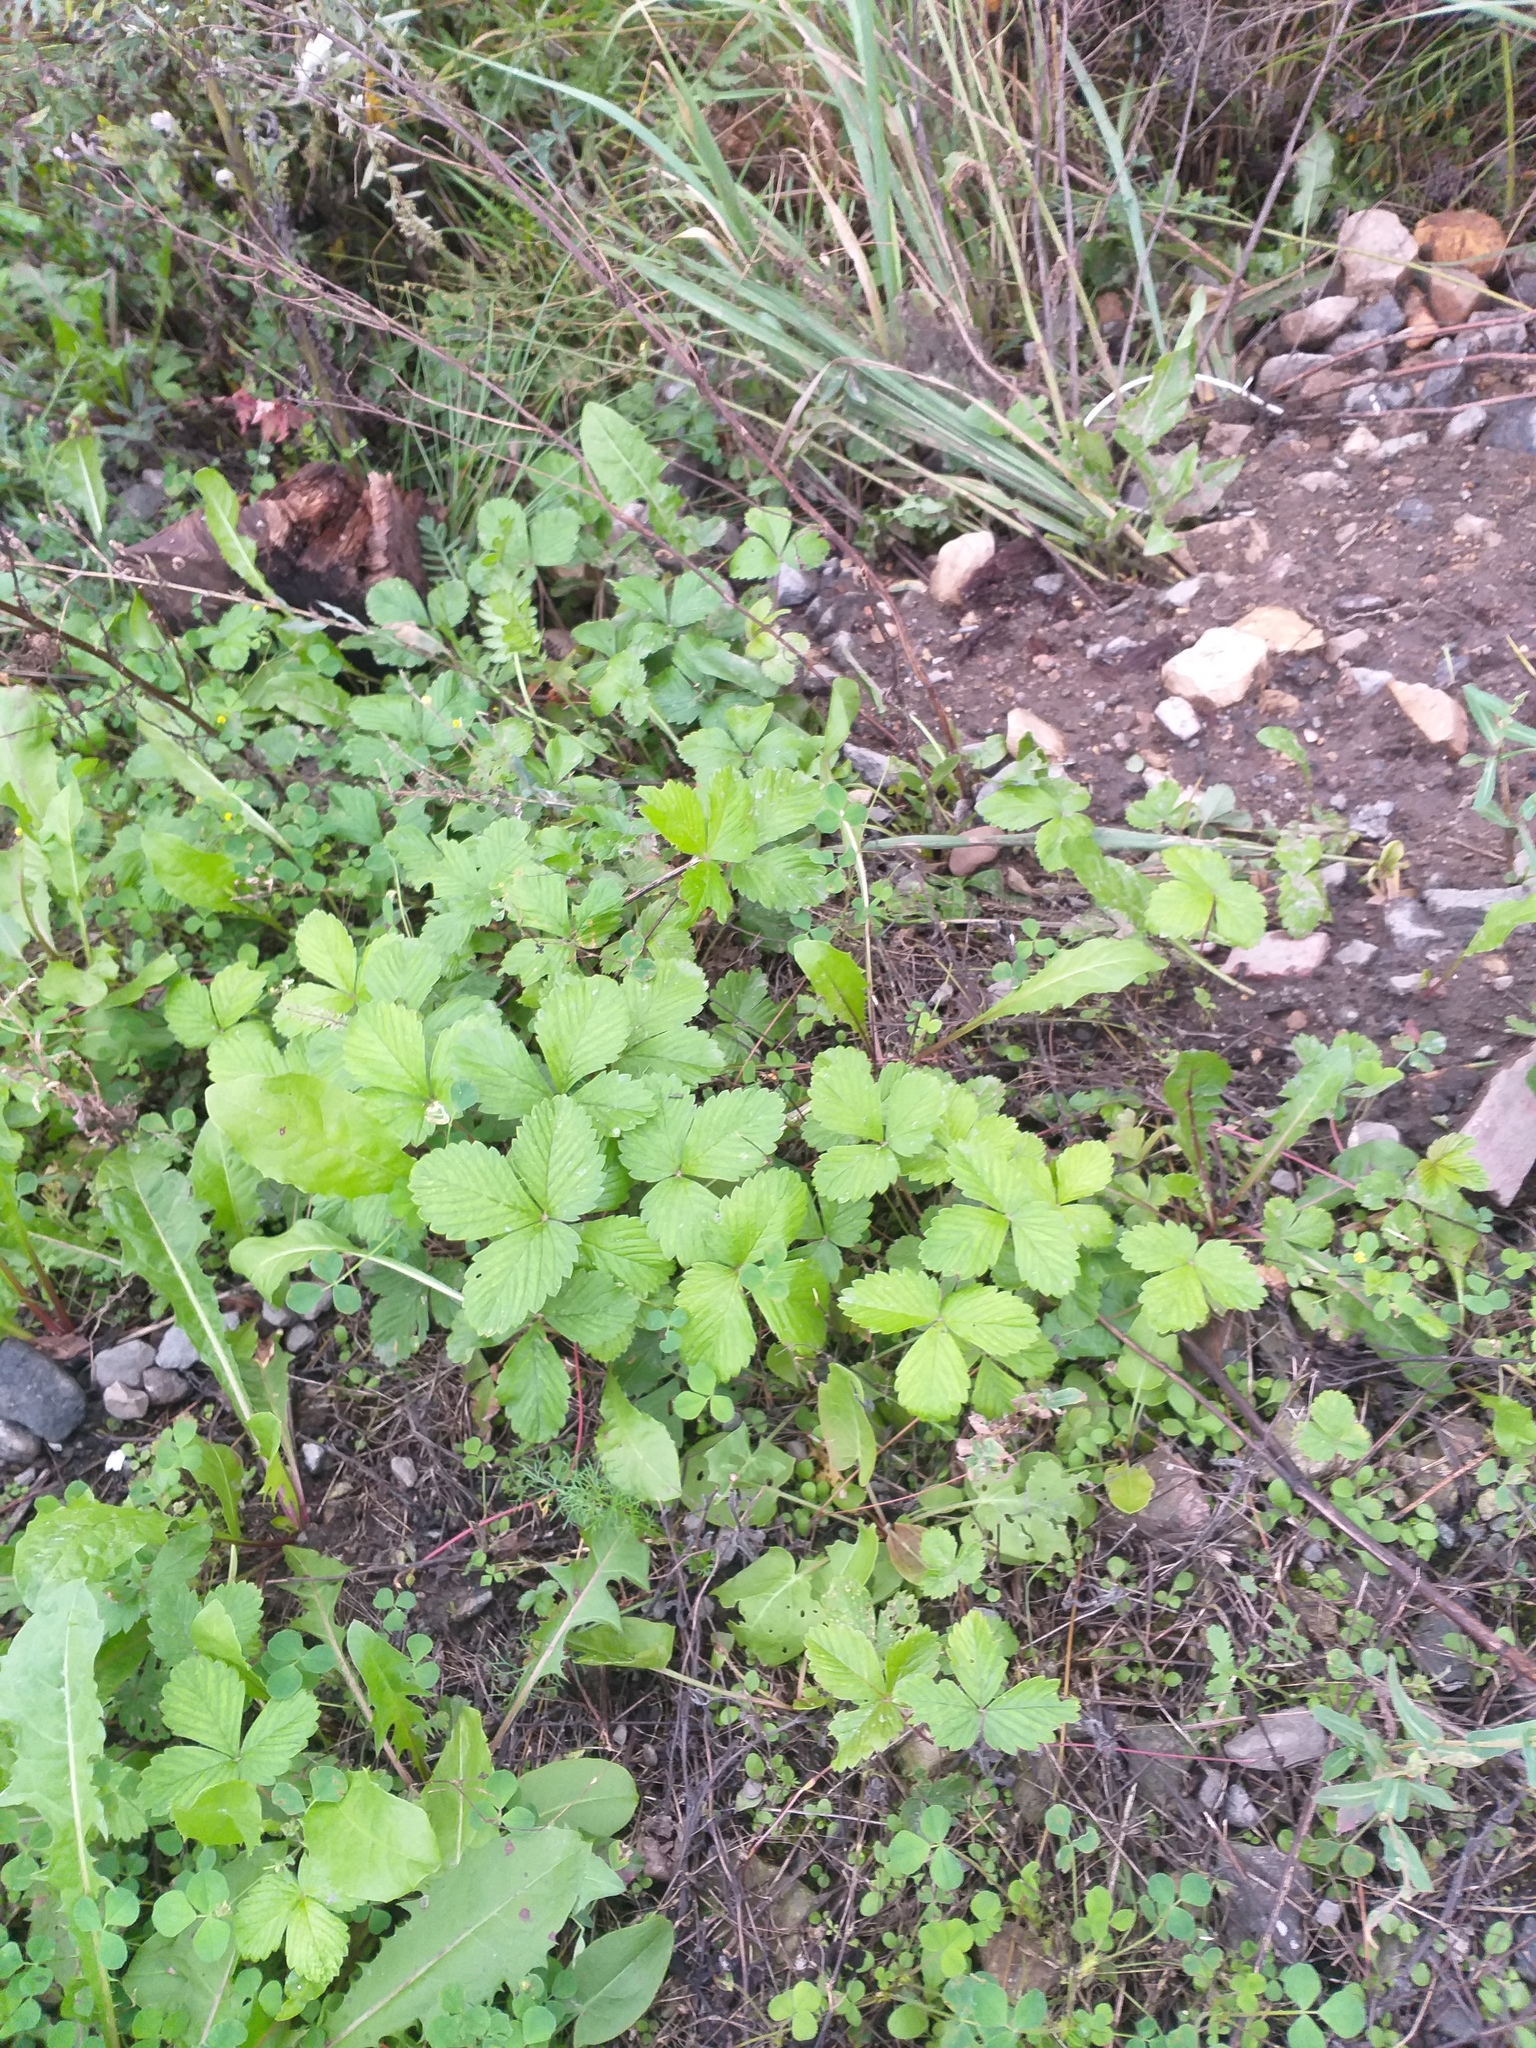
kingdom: Plantae
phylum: Tracheophyta
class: Magnoliopsida
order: Rosales
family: Rosaceae
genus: Fragaria
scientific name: Fragaria viridis
